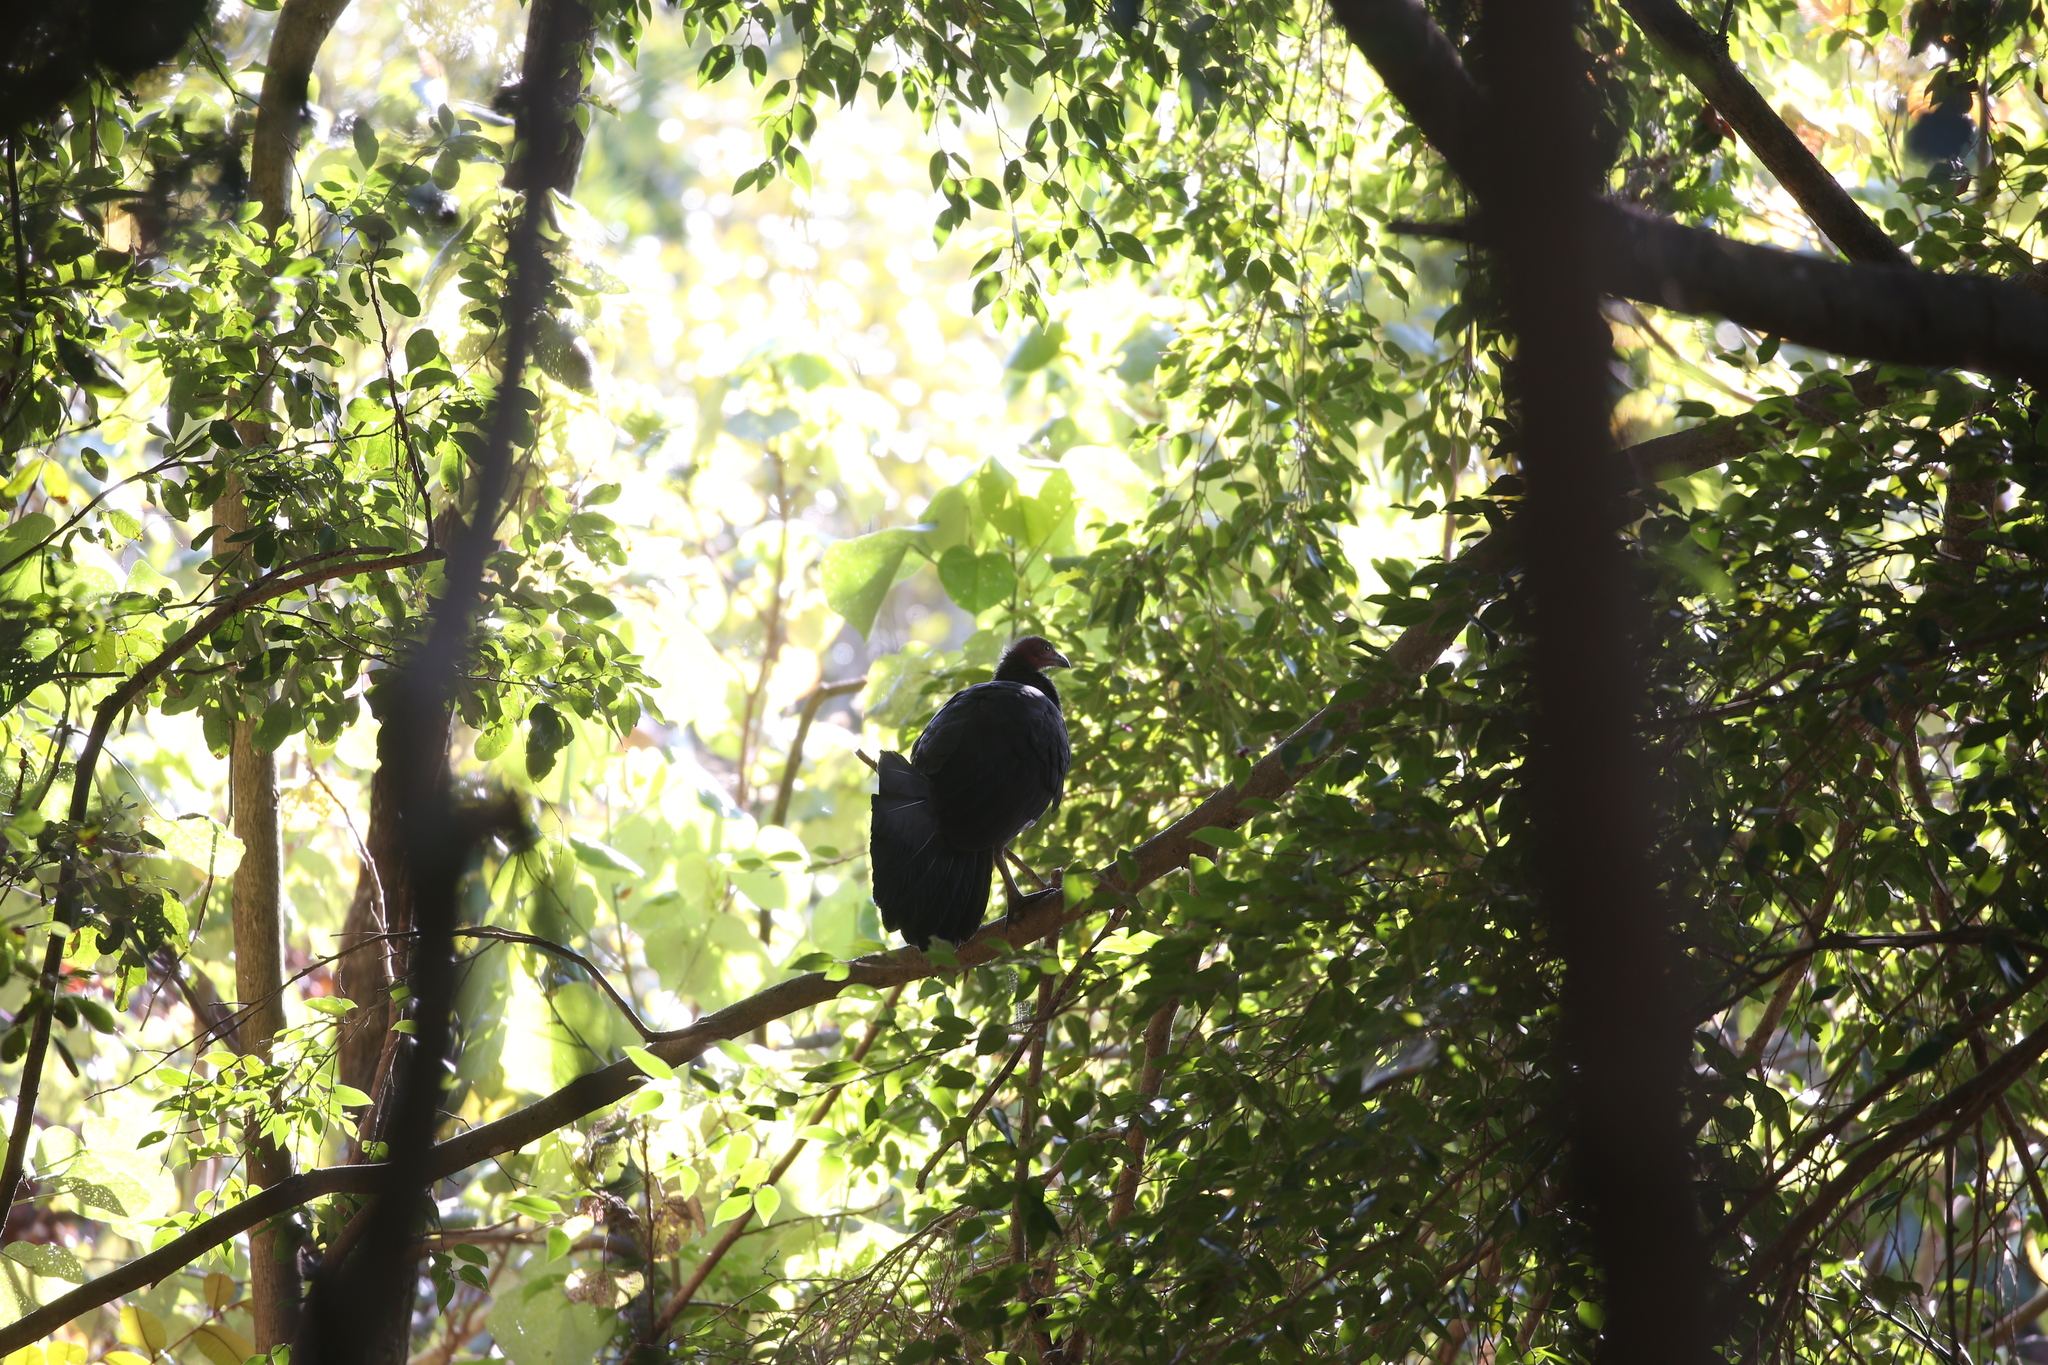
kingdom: Animalia
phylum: Chordata
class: Aves
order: Galliformes
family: Megapodiidae
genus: Alectura
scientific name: Alectura lathami
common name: Australian brushturkey
